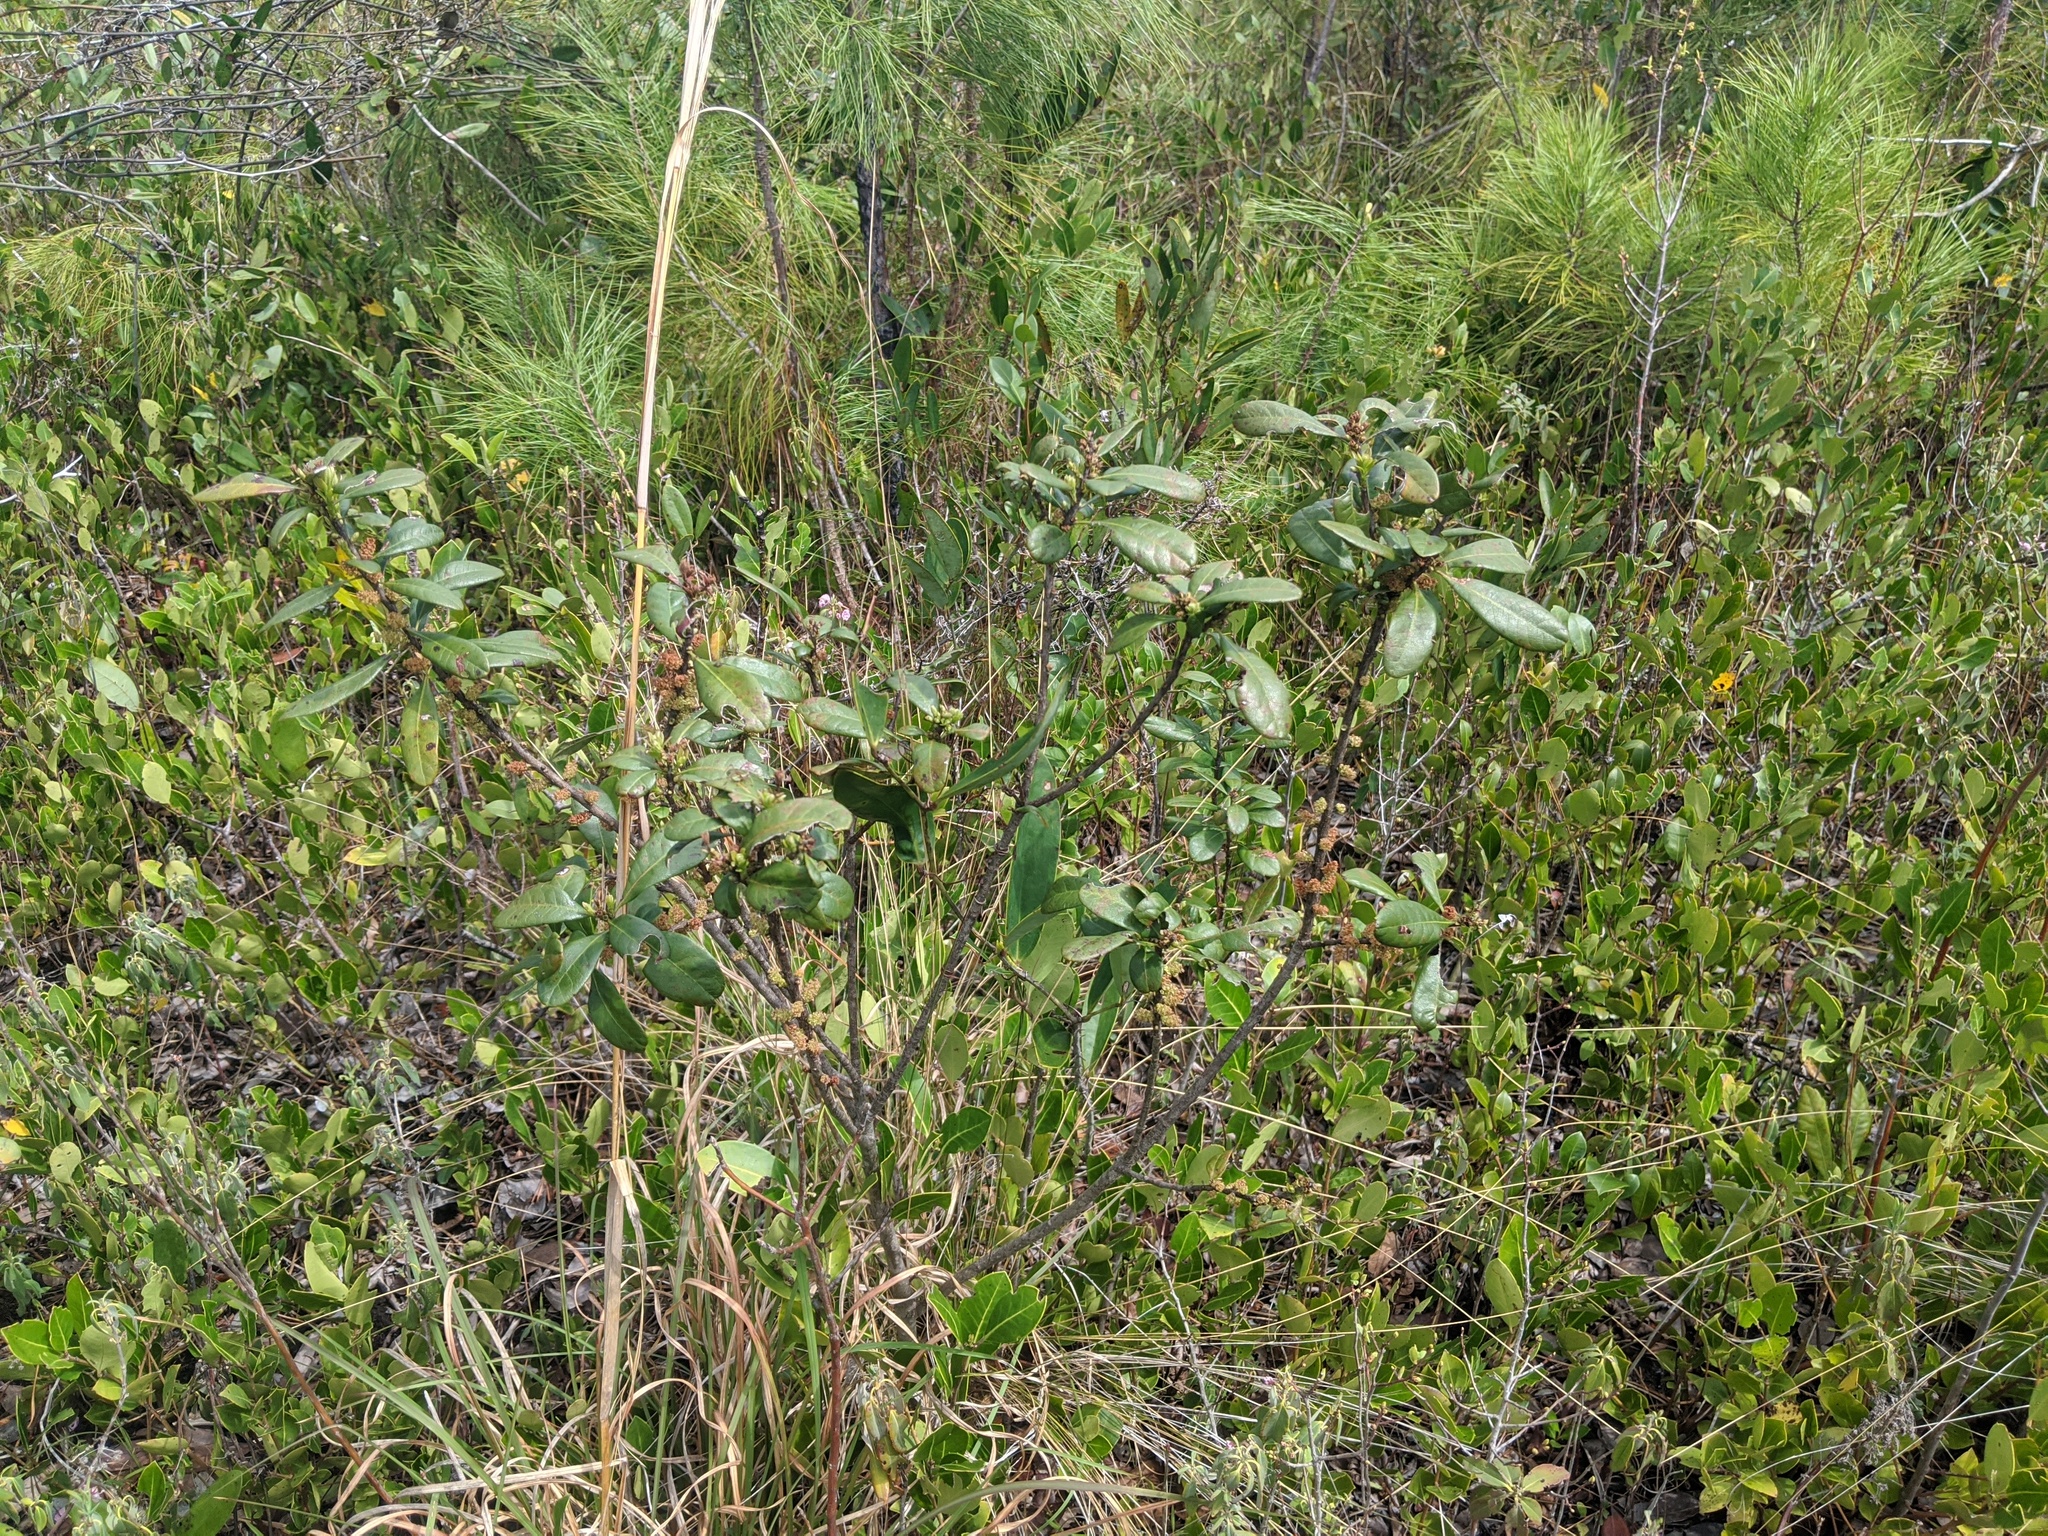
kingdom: Plantae
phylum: Tracheophyta
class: Magnoliopsida
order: Fagales
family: Myricaceae
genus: Morella
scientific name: Morella caroliniensis
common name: Evergreen bayberry
